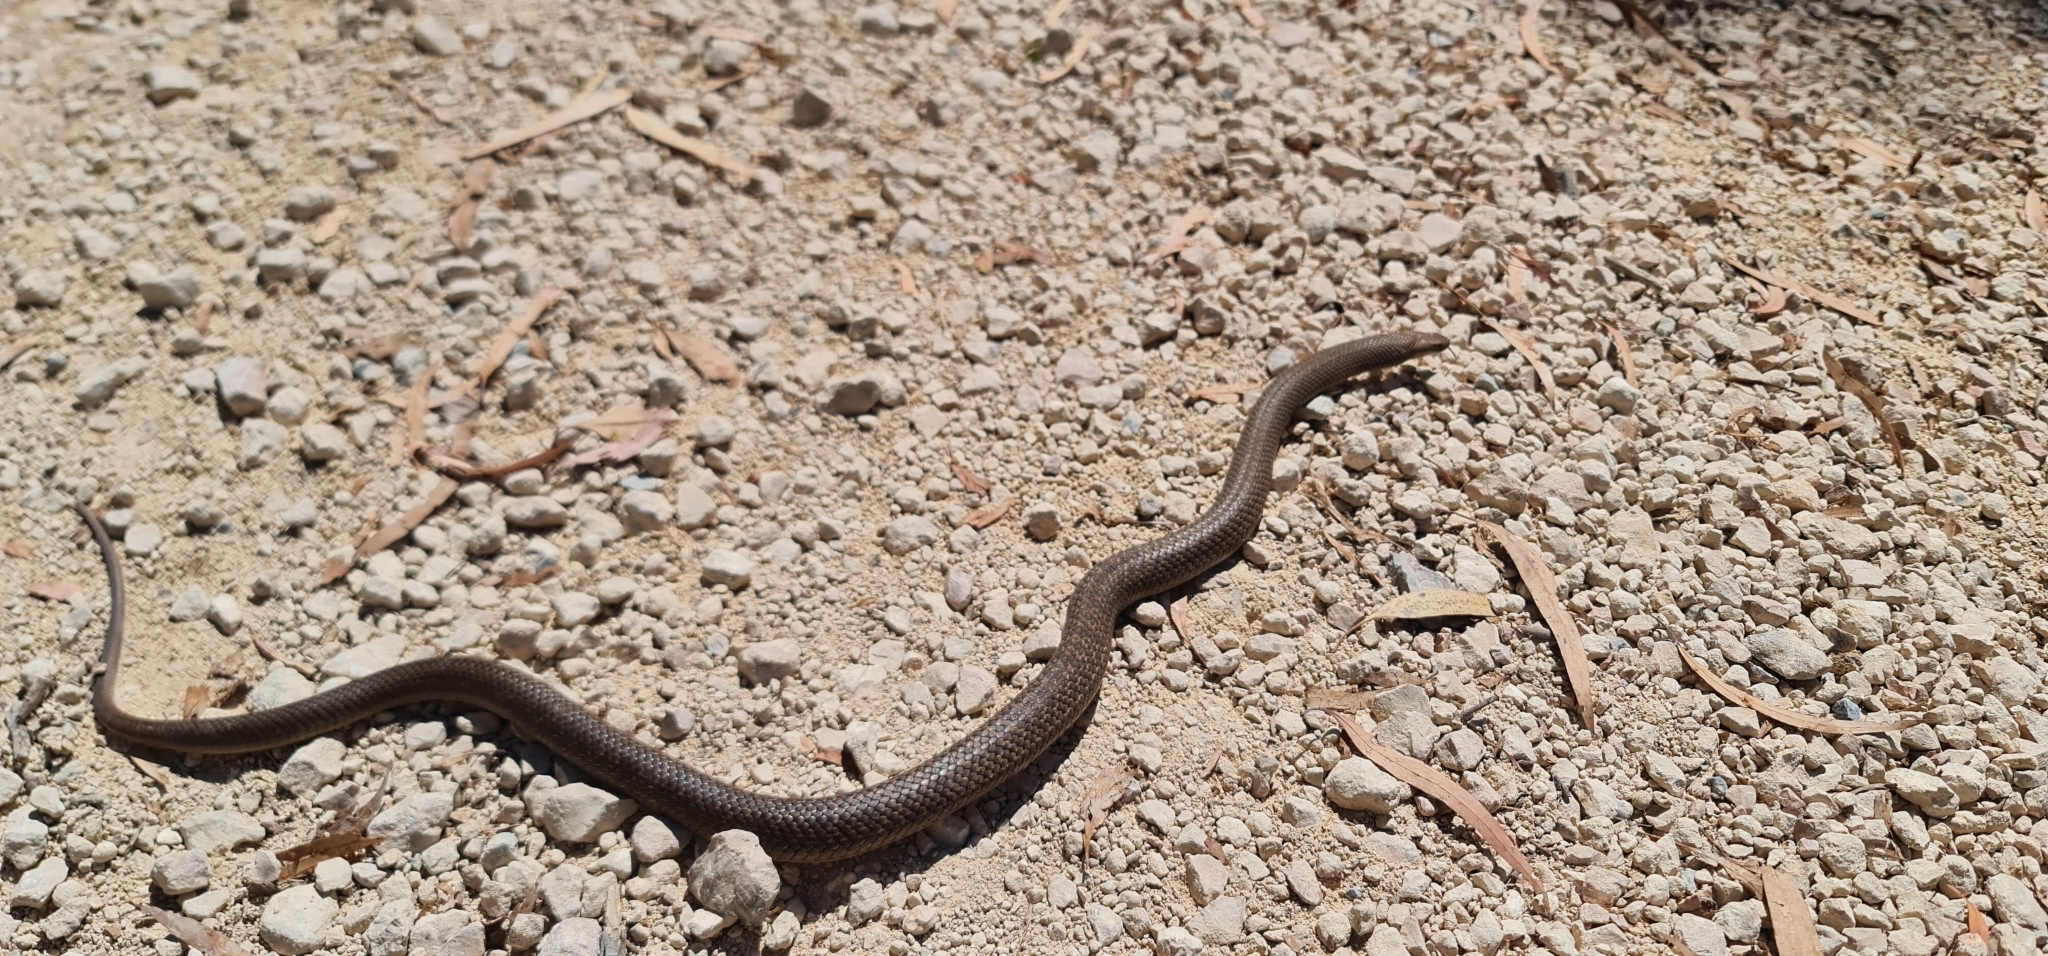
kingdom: Animalia
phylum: Chordata
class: Squamata
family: Elapidae
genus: Pseudonaja
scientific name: Pseudonaja textilis
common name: Eastern brown snake
